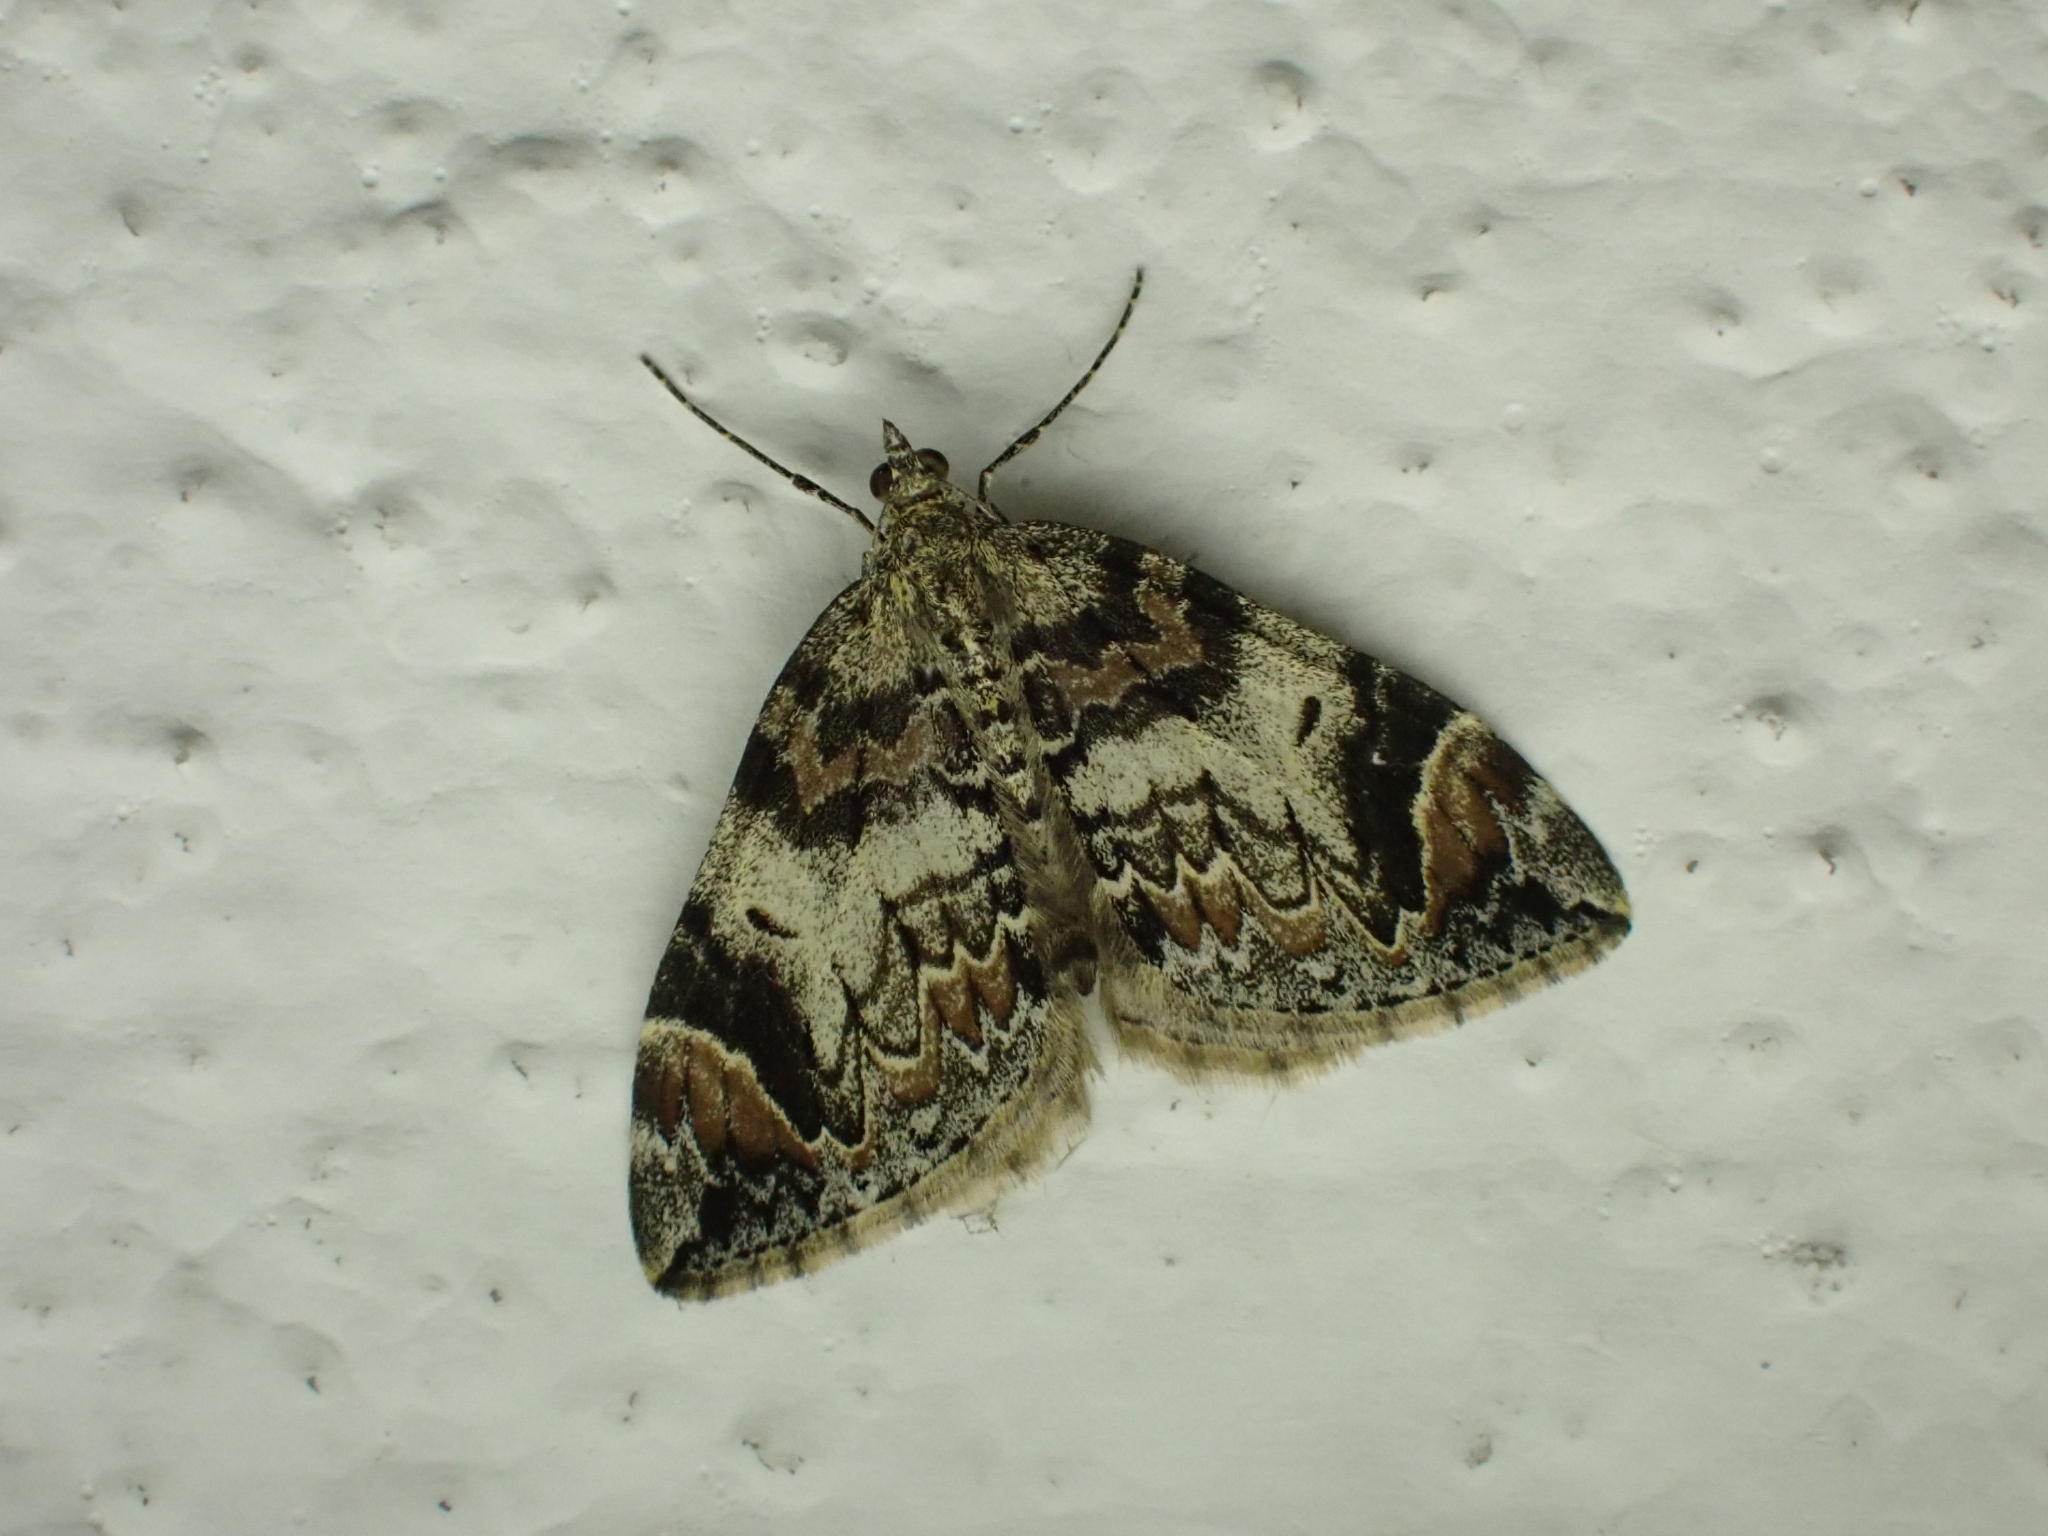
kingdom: Animalia
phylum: Arthropoda
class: Insecta
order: Lepidoptera
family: Geometridae
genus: Dysstroma
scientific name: Dysstroma citrata
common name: Dark marbled carpet
